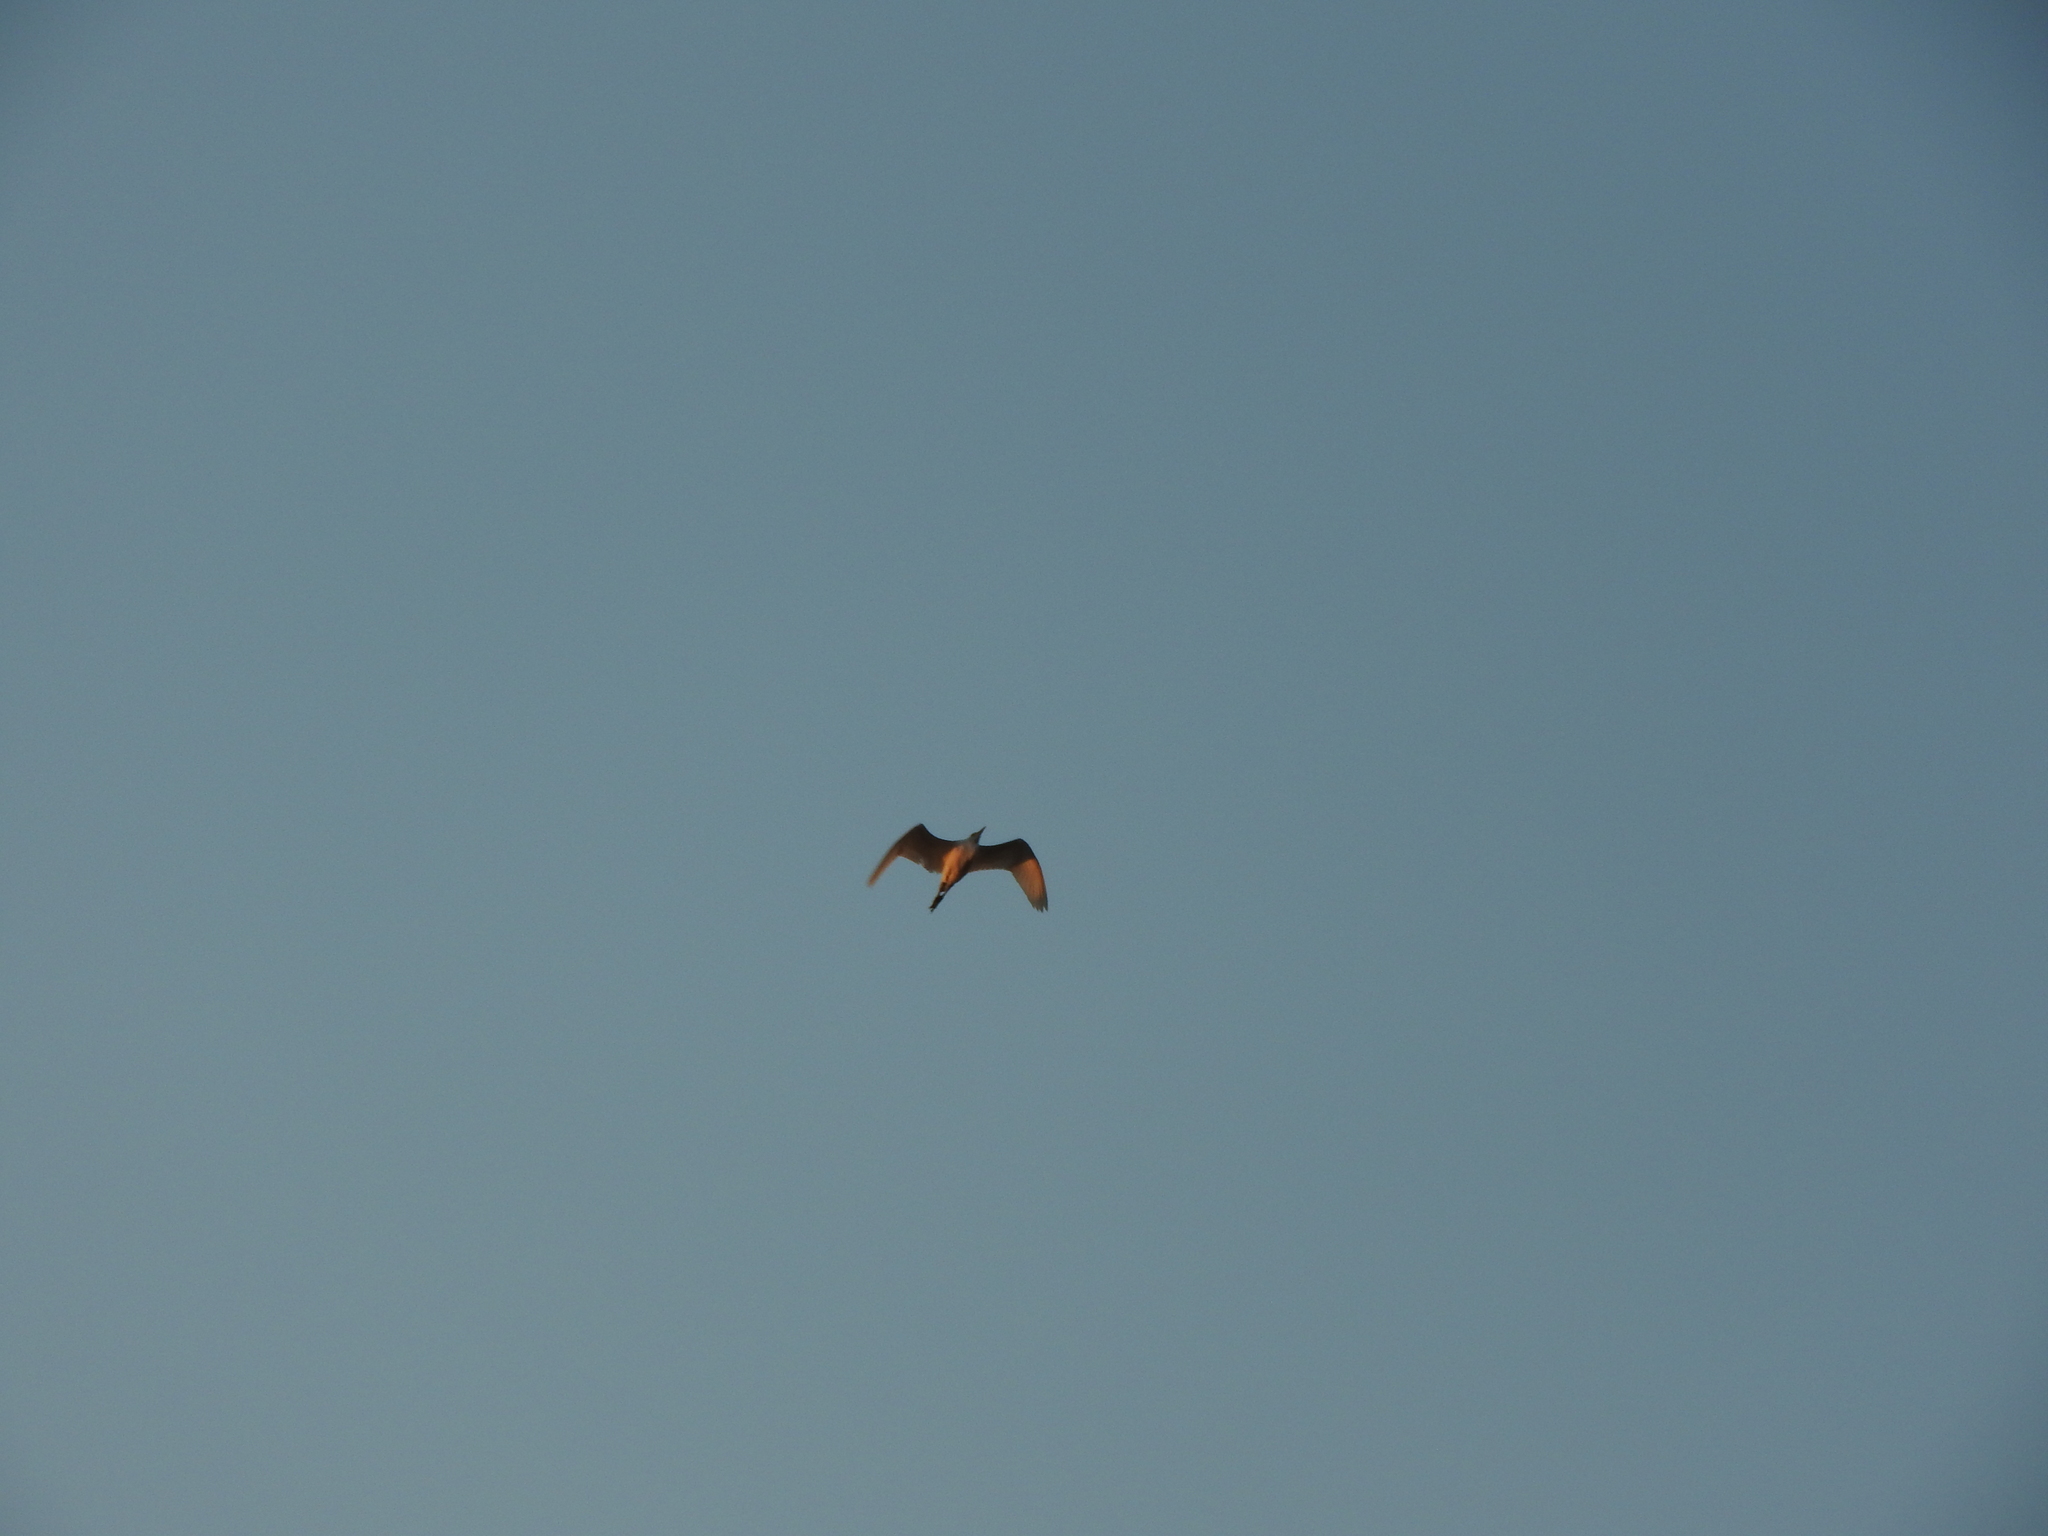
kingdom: Animalia
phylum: Chordata
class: Aves
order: Pelecaniformes
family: Ardeidae
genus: Bubulcus
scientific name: Bubulcus ibis
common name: Cattle egret
